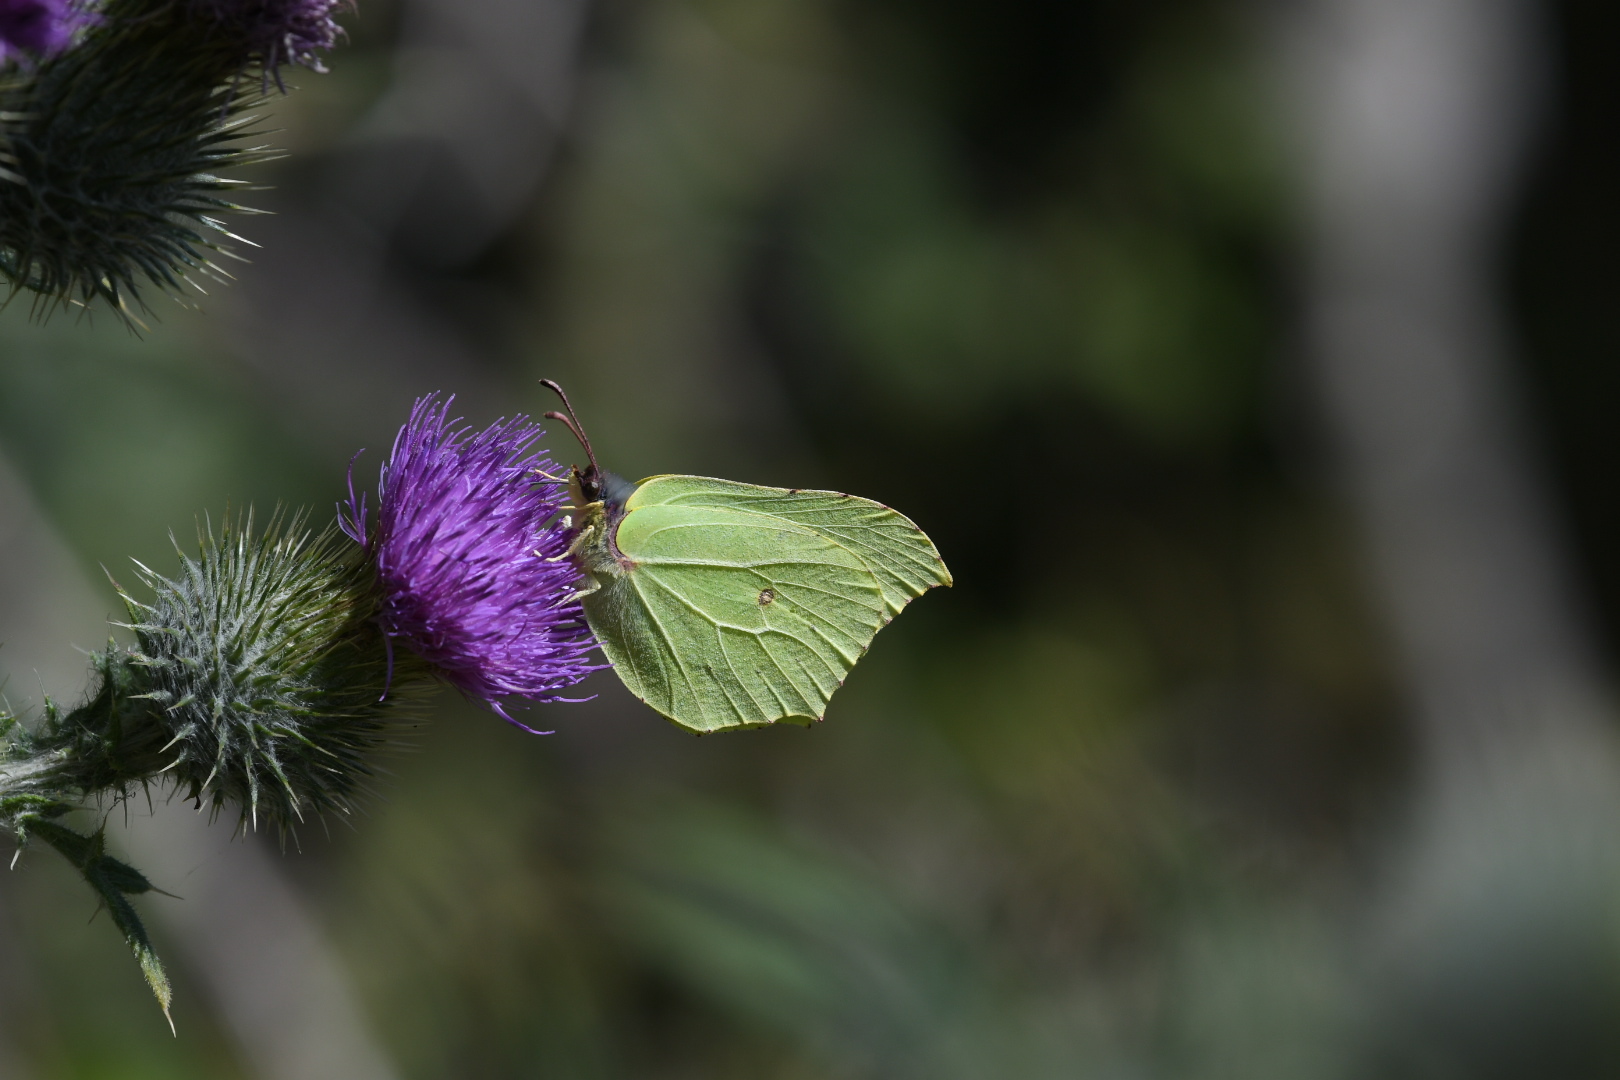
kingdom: Animalia
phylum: Arthropoda
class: Insecta
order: Lepidoptera
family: Pieridae
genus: Gonepteryx
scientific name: Gonepteryx rhamni
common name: Brimstone
